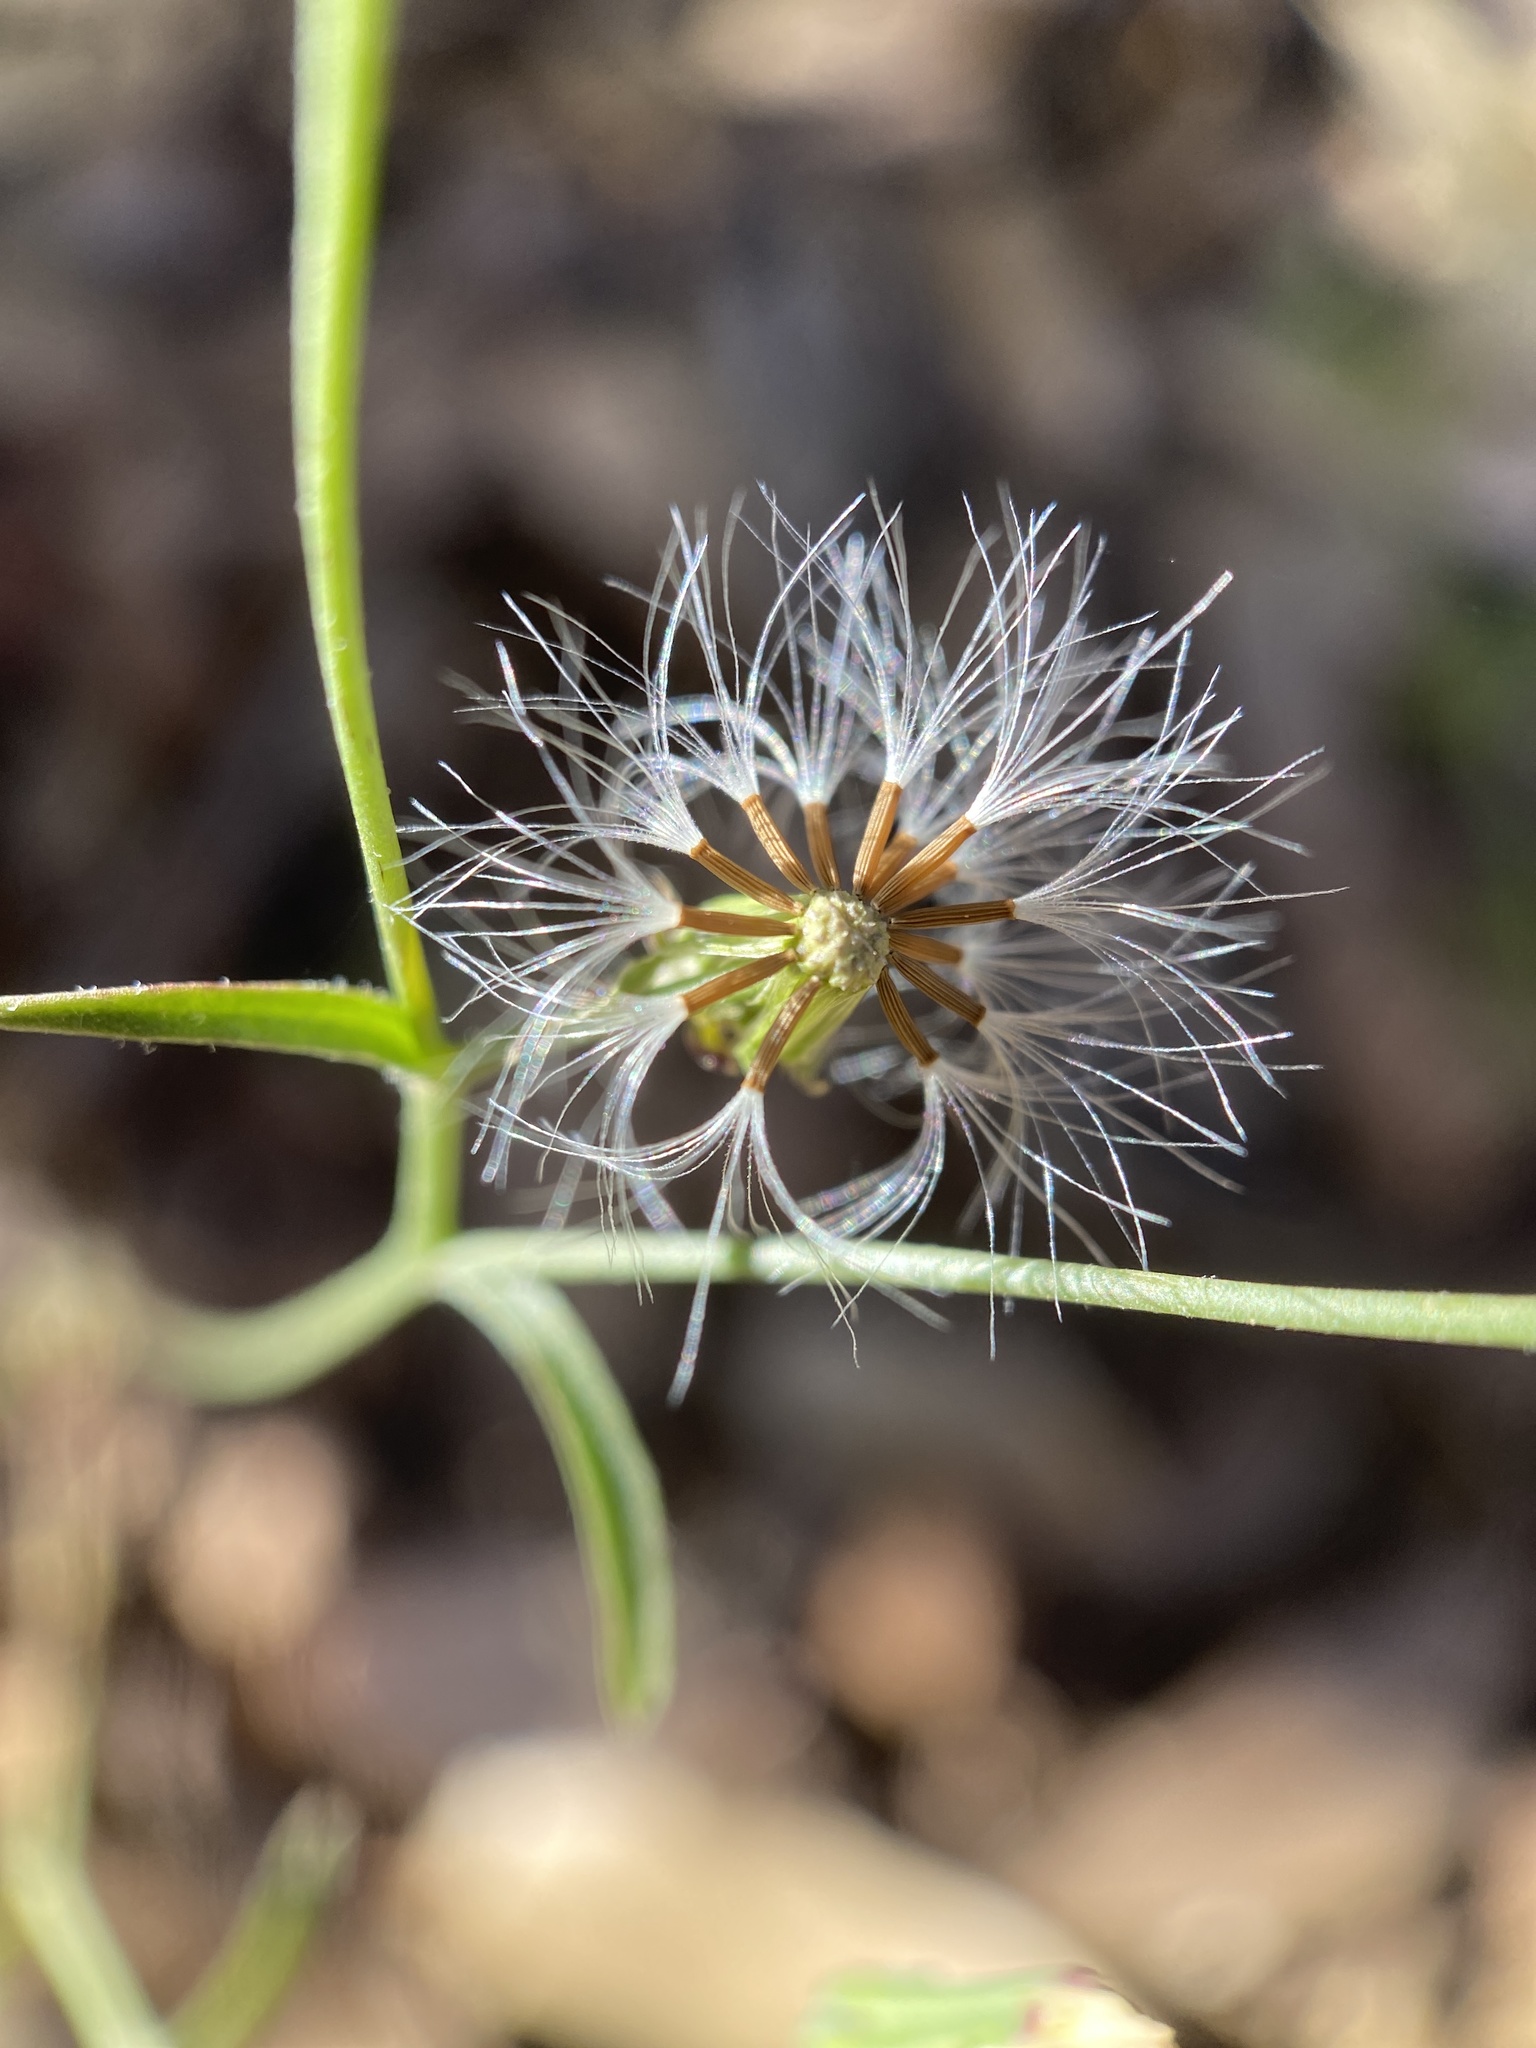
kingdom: Plantae
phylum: Tracheophyta
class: Magnoliopsida
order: Asterales
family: Asteraceae
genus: Malacothrix
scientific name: Malacothrix stebbinsii
